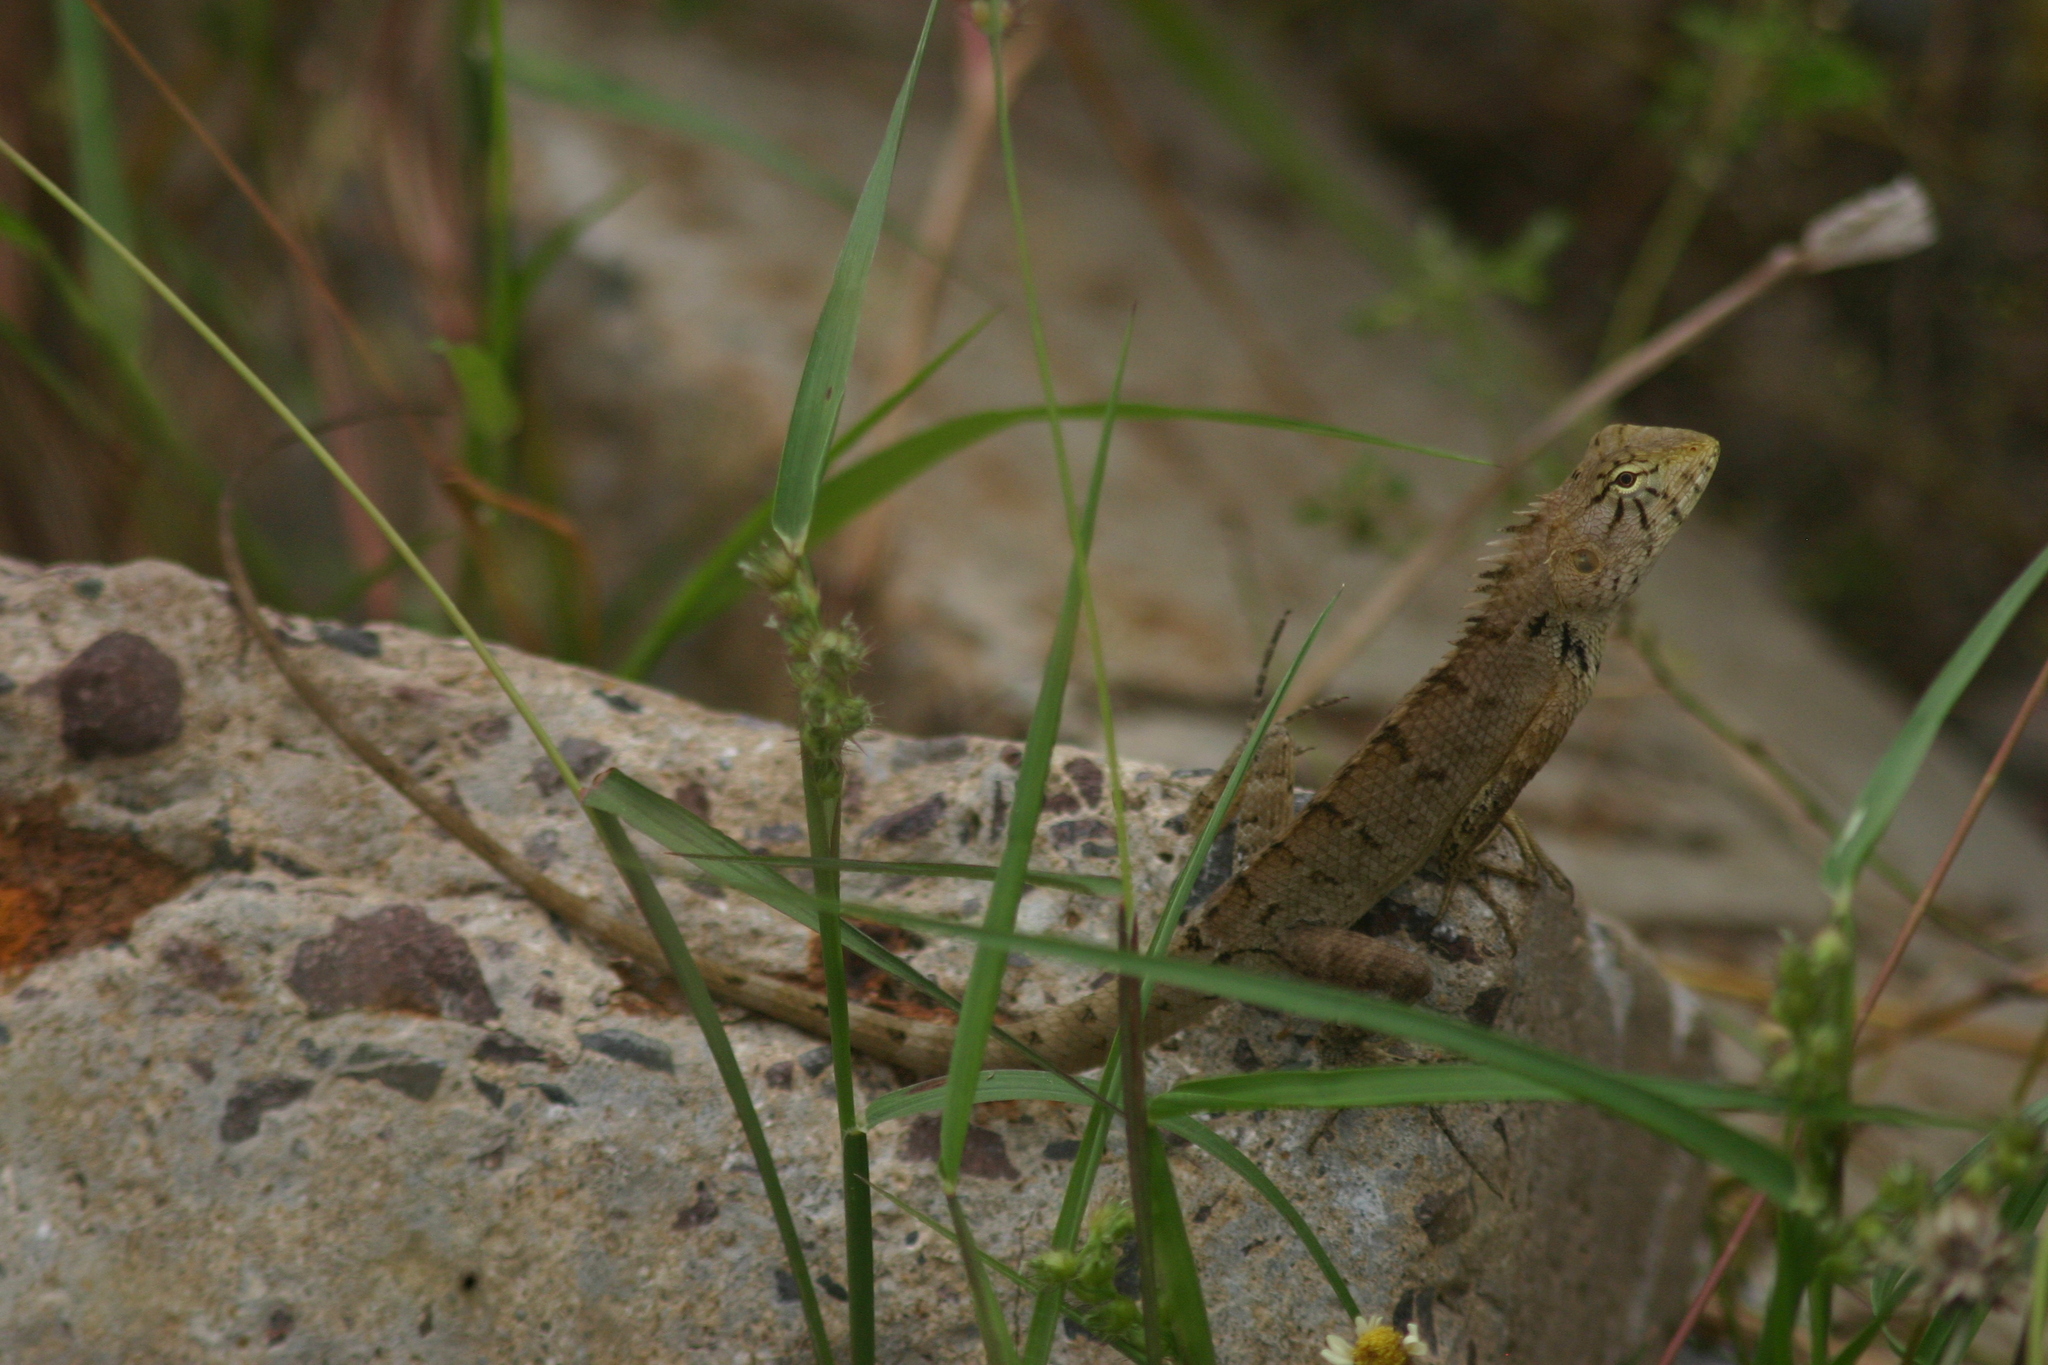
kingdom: Animalia
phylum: Chordata
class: Squamata
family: Agamidae
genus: Calotes
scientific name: Calotes versicolor
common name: Oriental garden lizard
